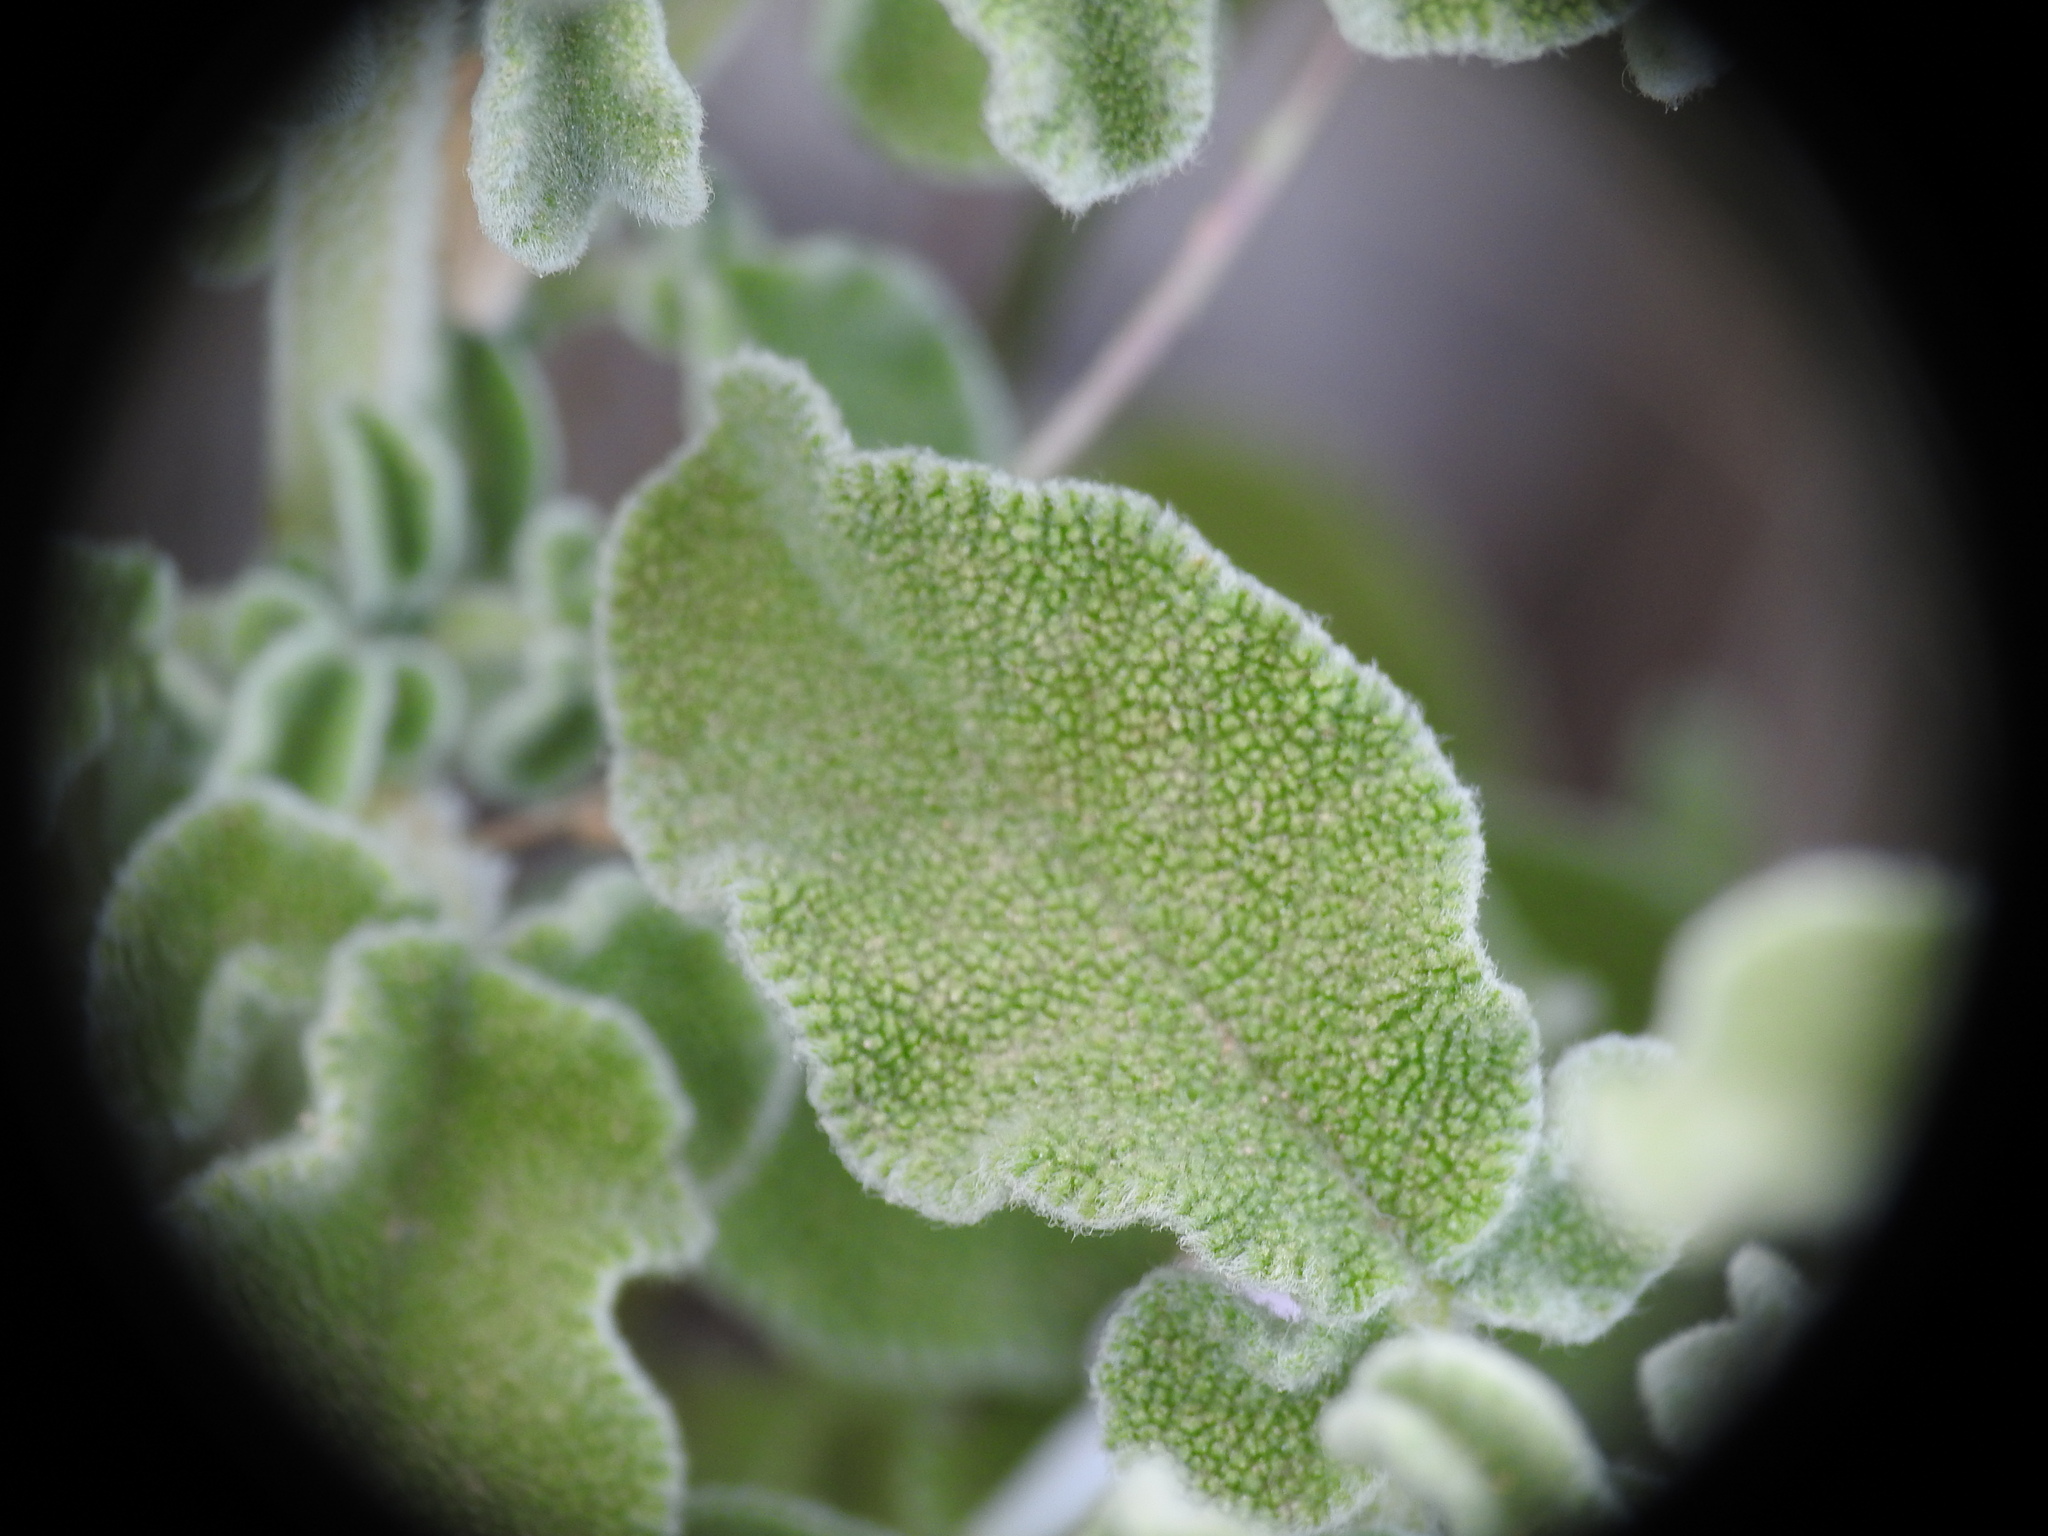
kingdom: Plantae
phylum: Tracheophyta
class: Magnoliopsida
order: Lamiales
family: Lamiaceae
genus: Salvia
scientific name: Salvia fruticosa
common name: Greek sage
